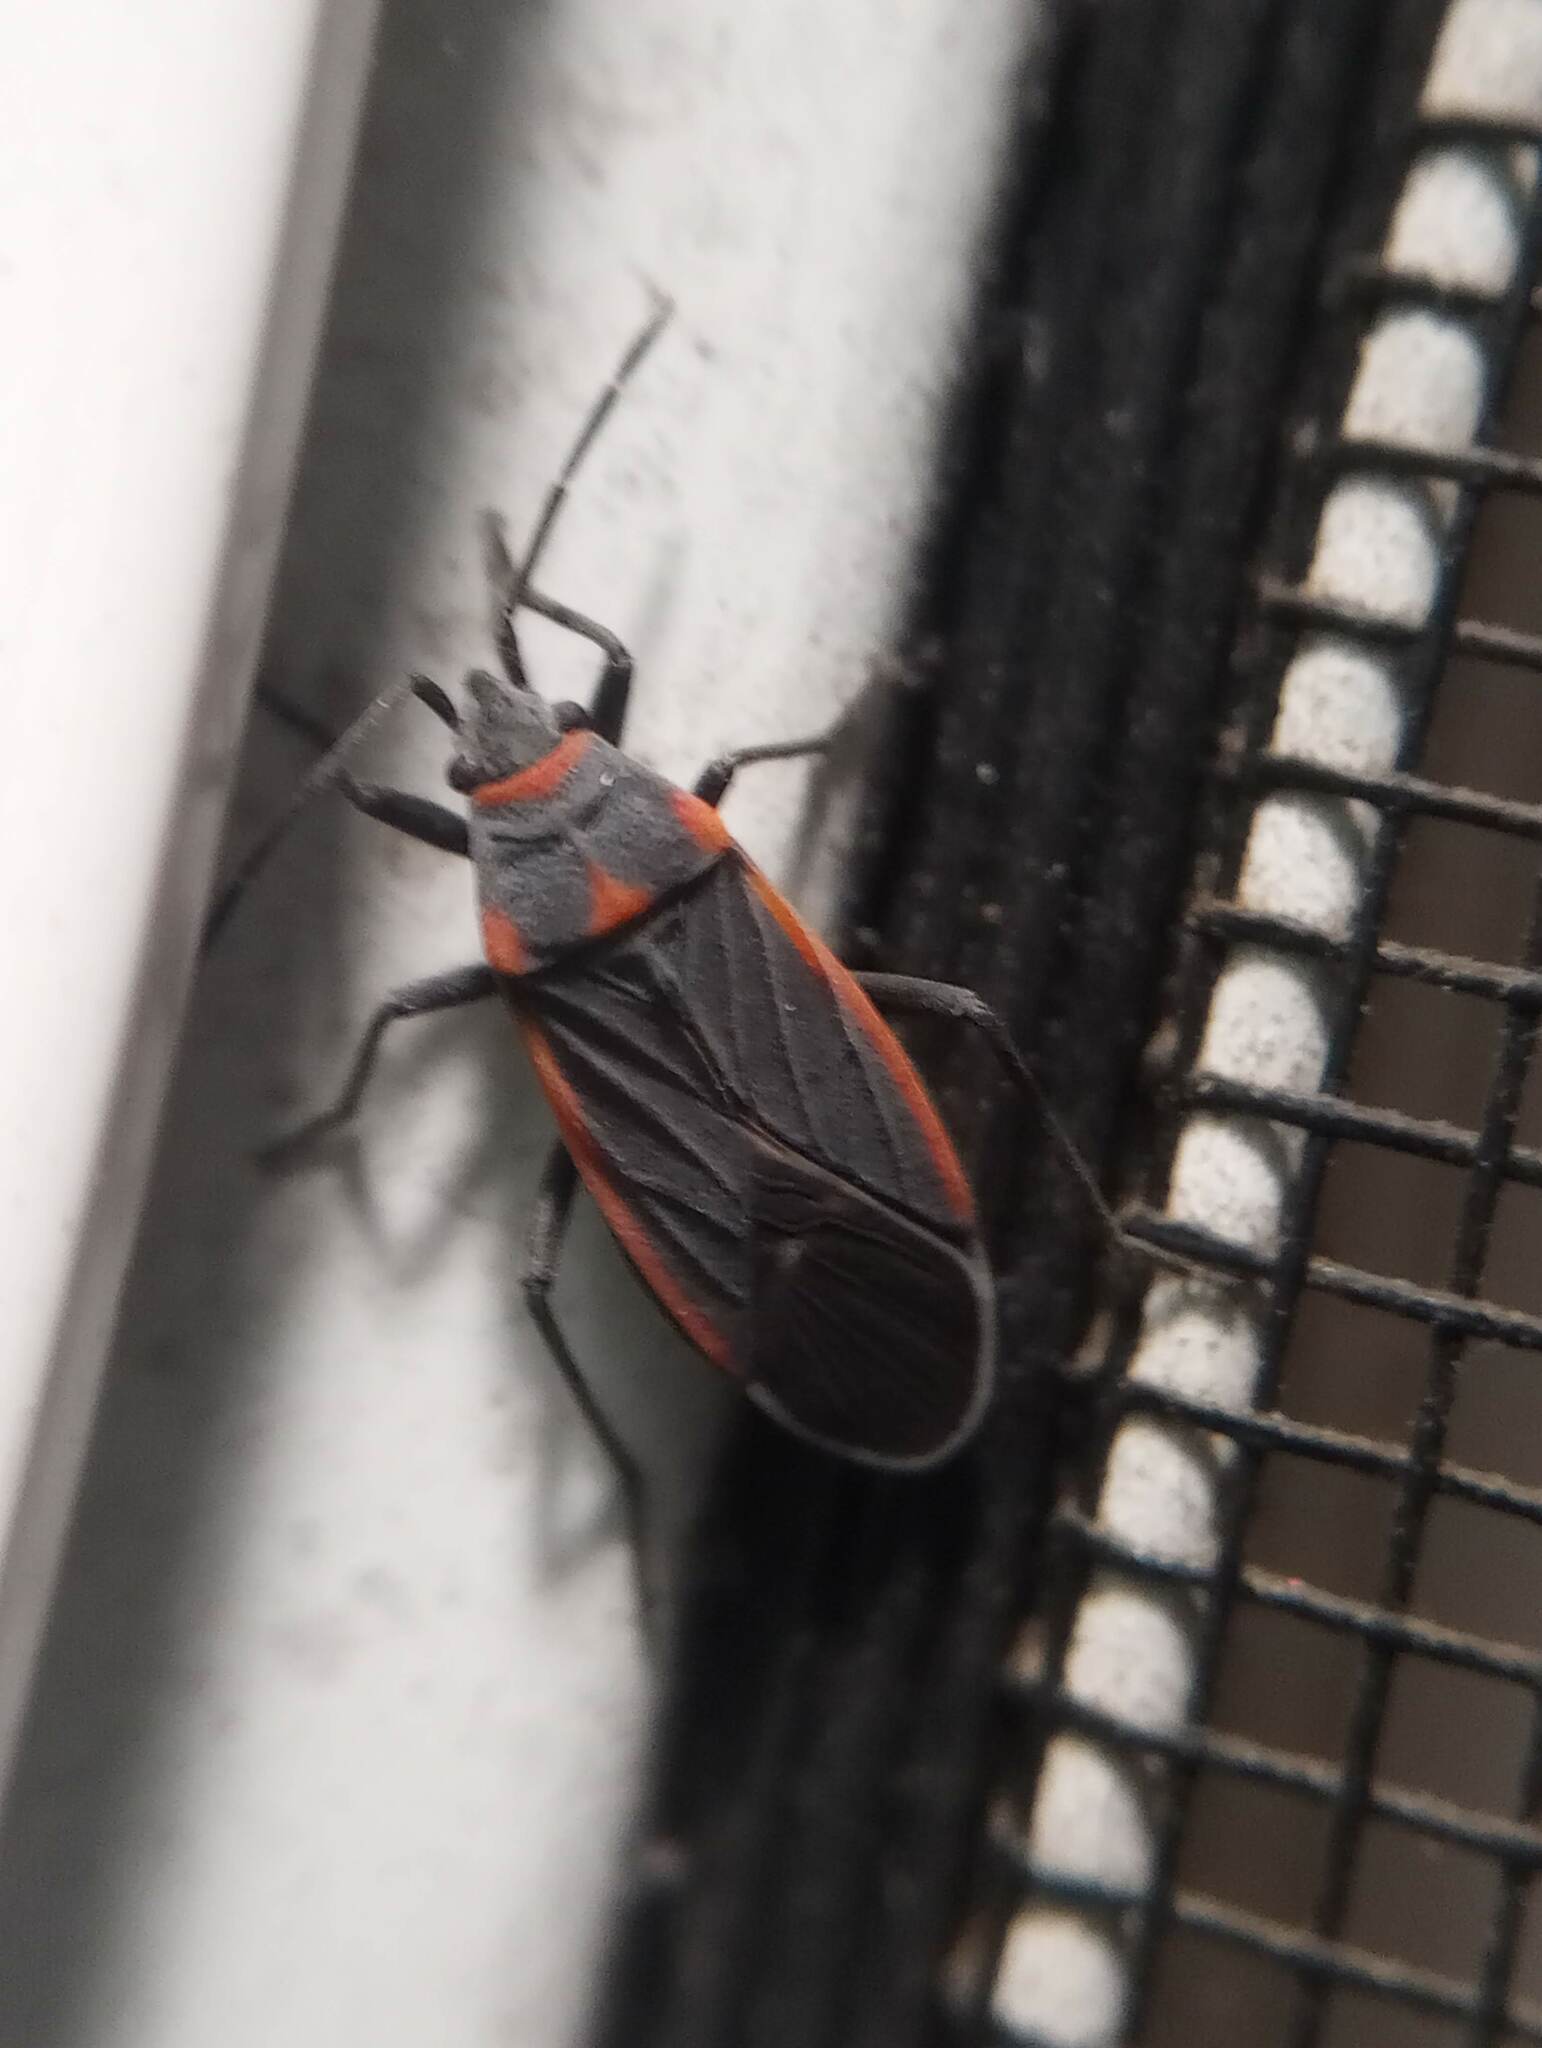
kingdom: Animalia
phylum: Arthropoda
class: Insecta
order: Hemiptera
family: Lygaeidae
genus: Melacoryphus
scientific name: Melacoryphus lateralis
